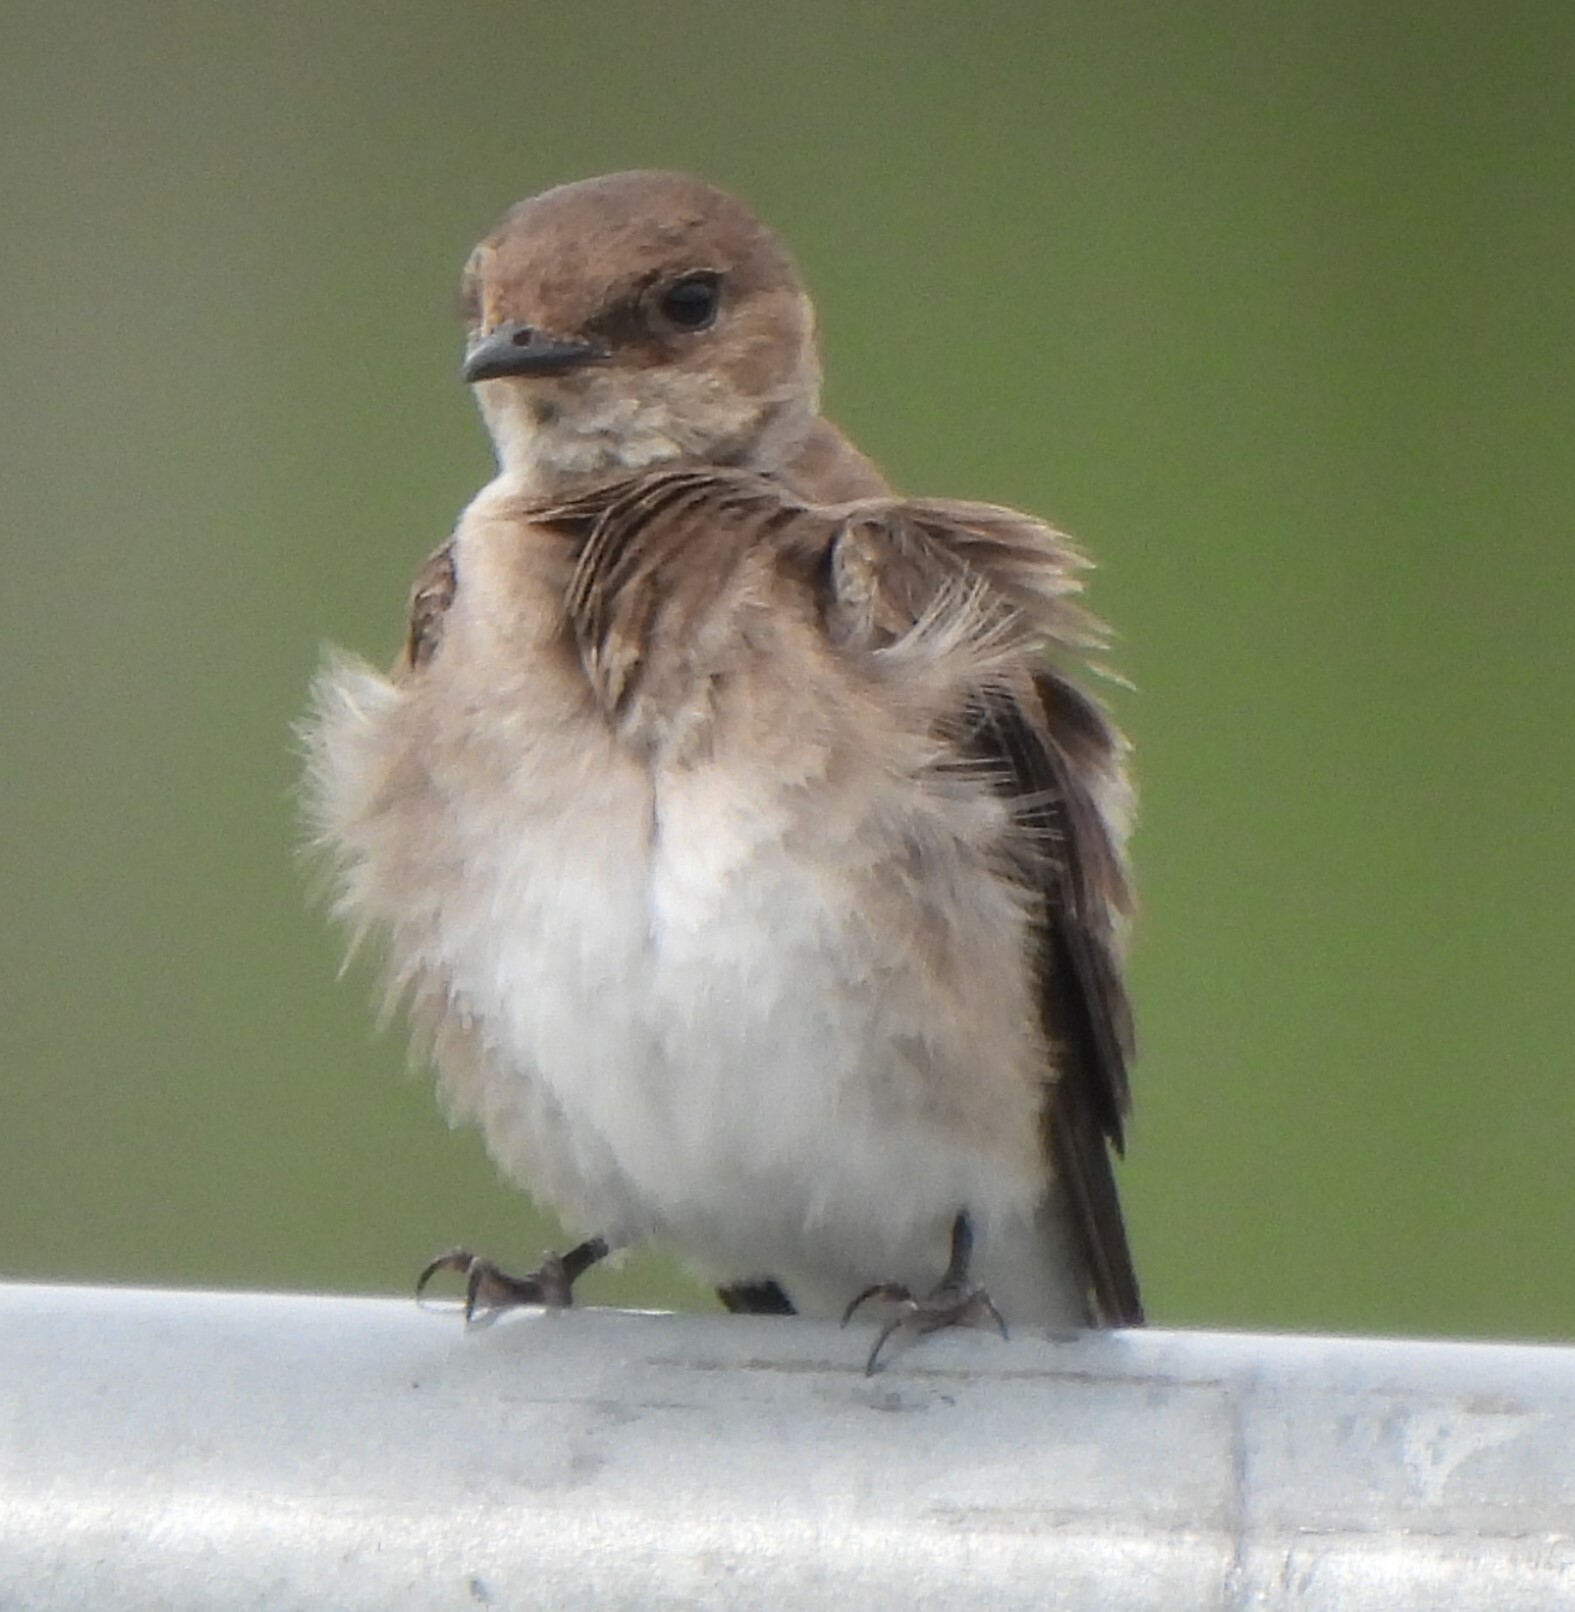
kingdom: Animalia
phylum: Chordata
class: Aves
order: Passeriformes
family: Hirundinidae
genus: Stelgidopteryx
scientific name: Stelgidopteryx serripennis
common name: Northern rough-winged swallow
